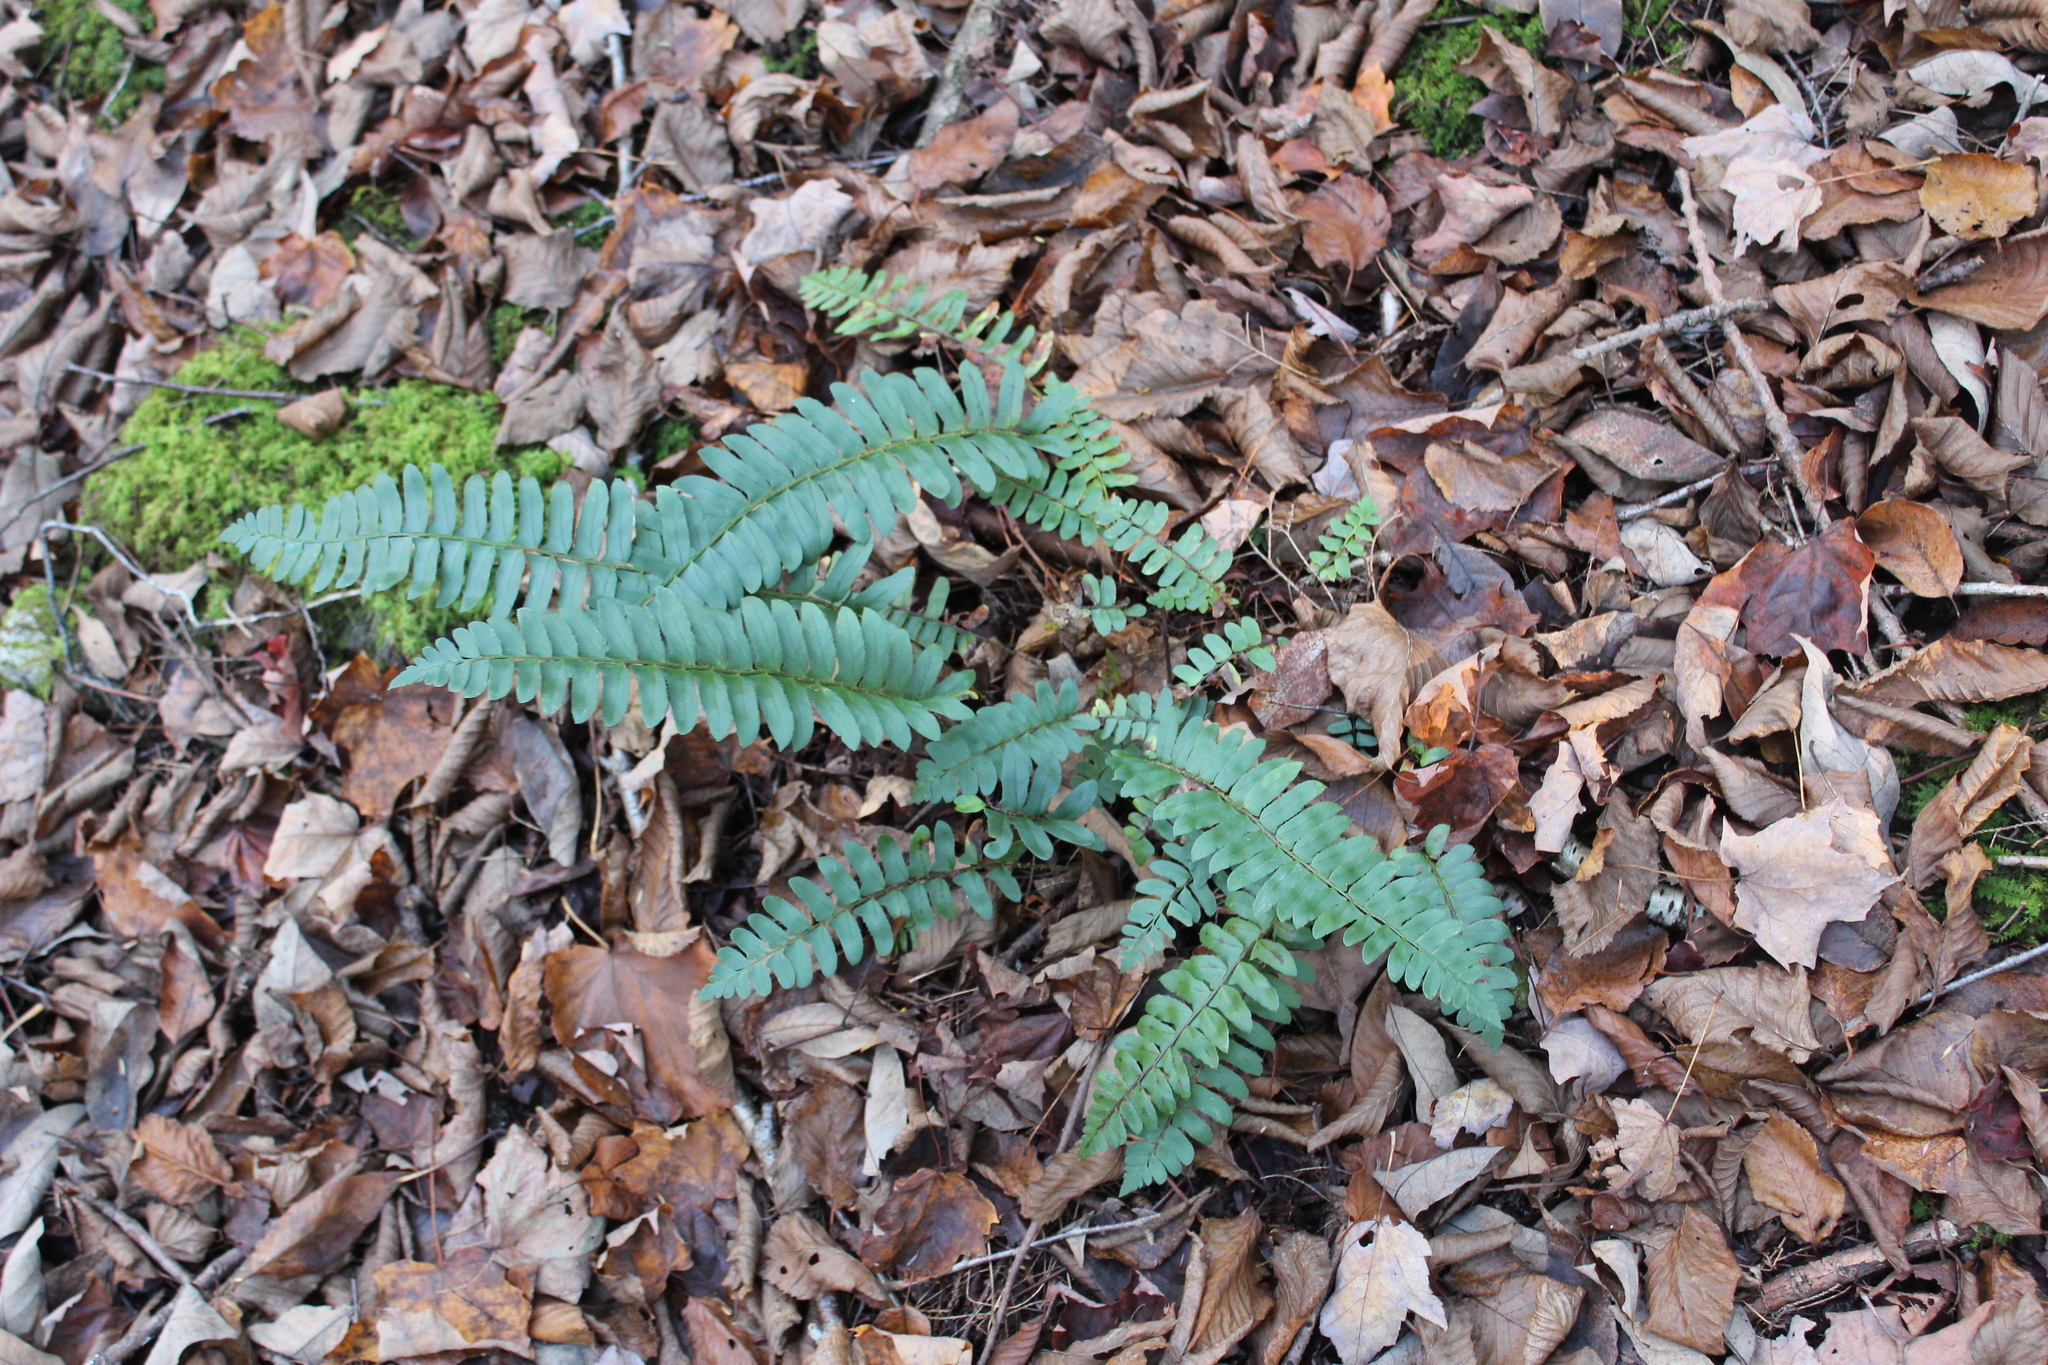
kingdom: Plantae
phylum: Tracheophyta
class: Polypodiopsida
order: Polypodiales
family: Dryopteridaceae
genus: Polystichum
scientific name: Polystichum acrostichoides
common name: Christmas fern
